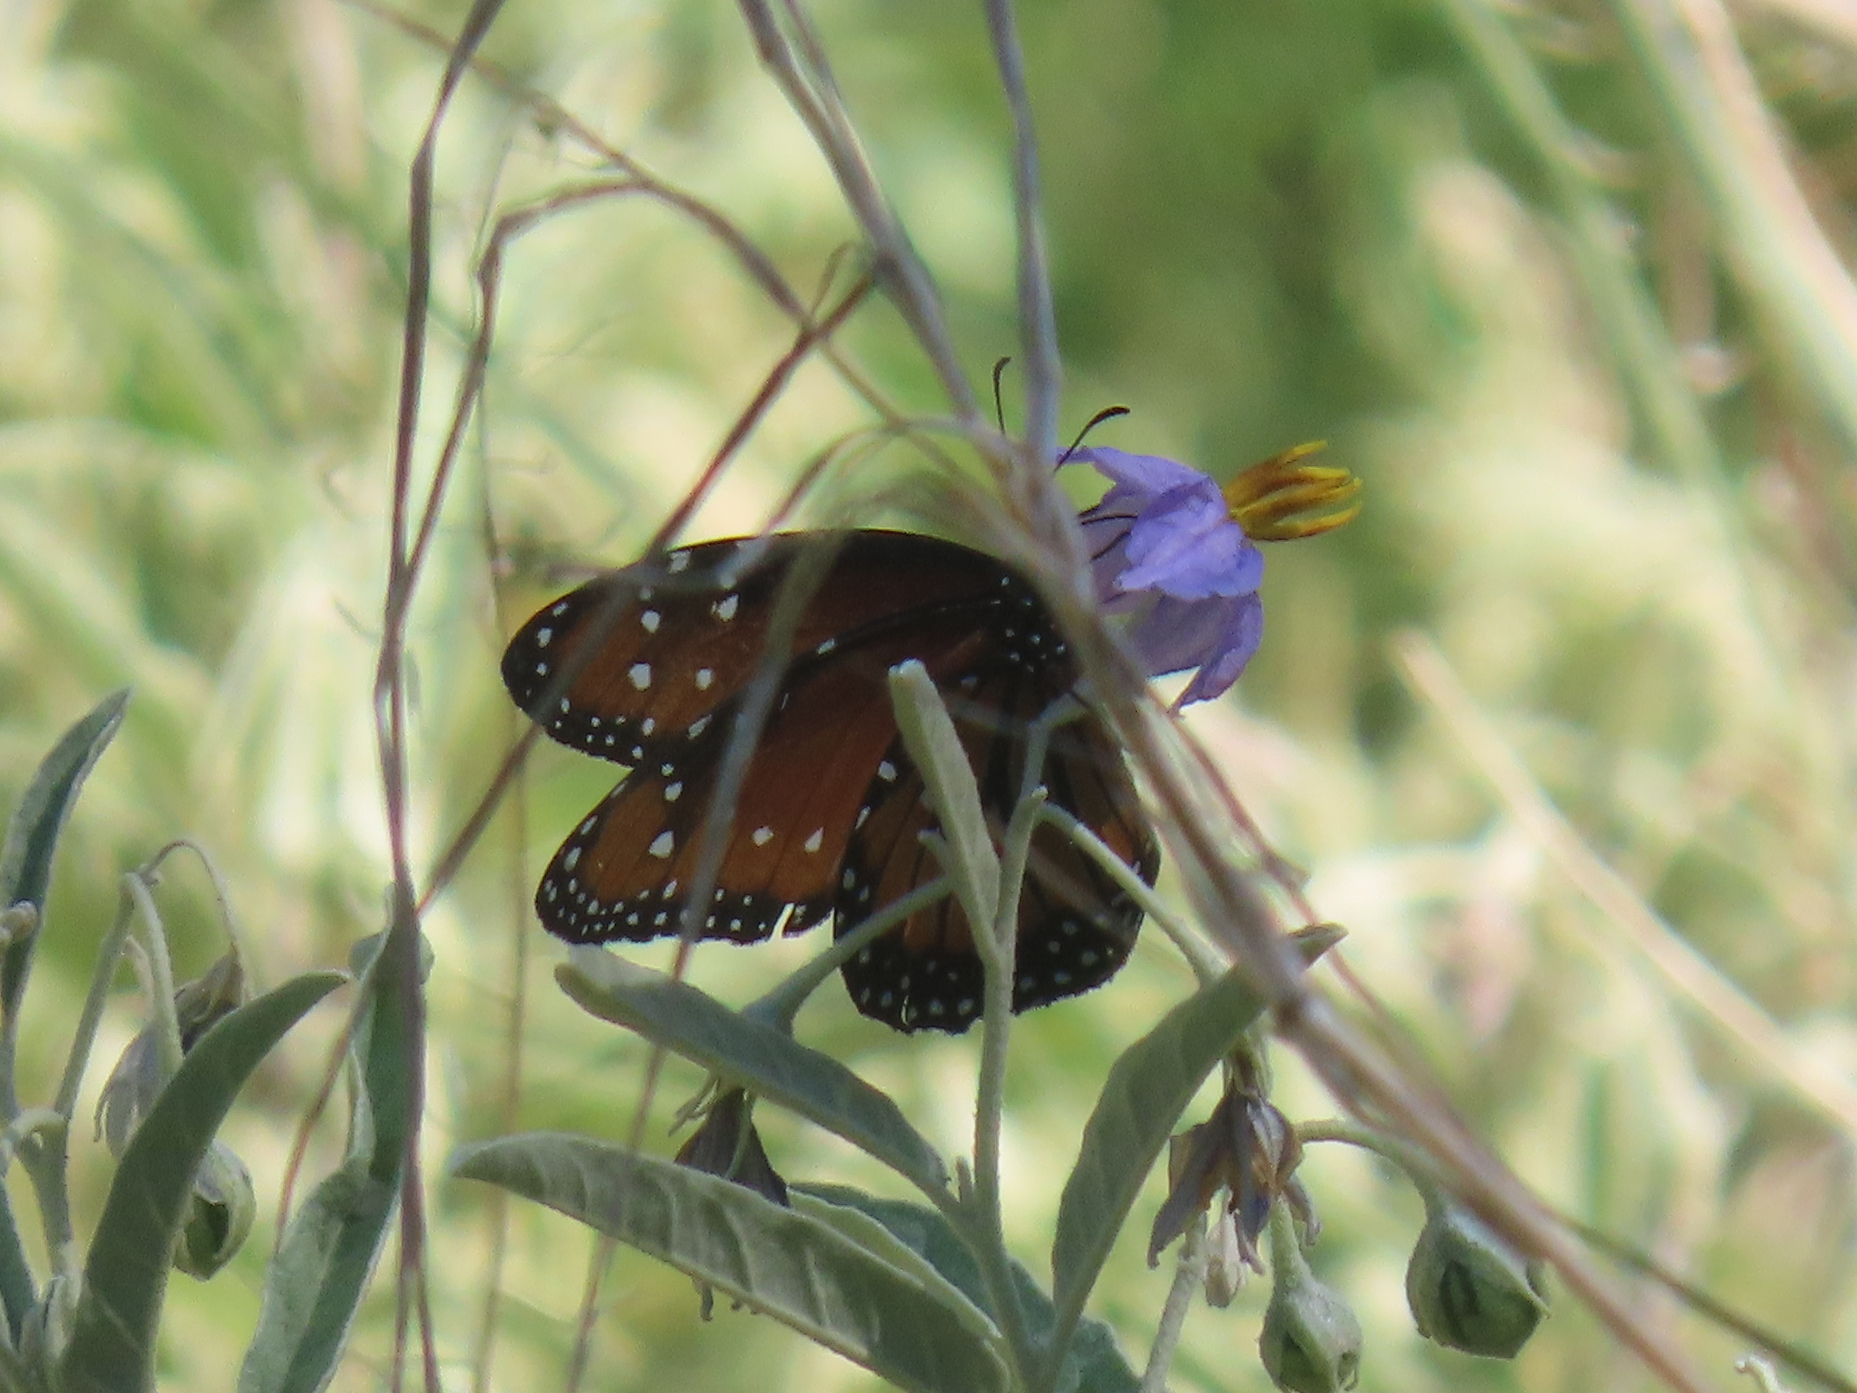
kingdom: Animalia
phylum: Arthropoda
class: Insecta
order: Lepidoptera
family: Nymphalidae
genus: Danaus
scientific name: Danaus gilippus
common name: Queen
